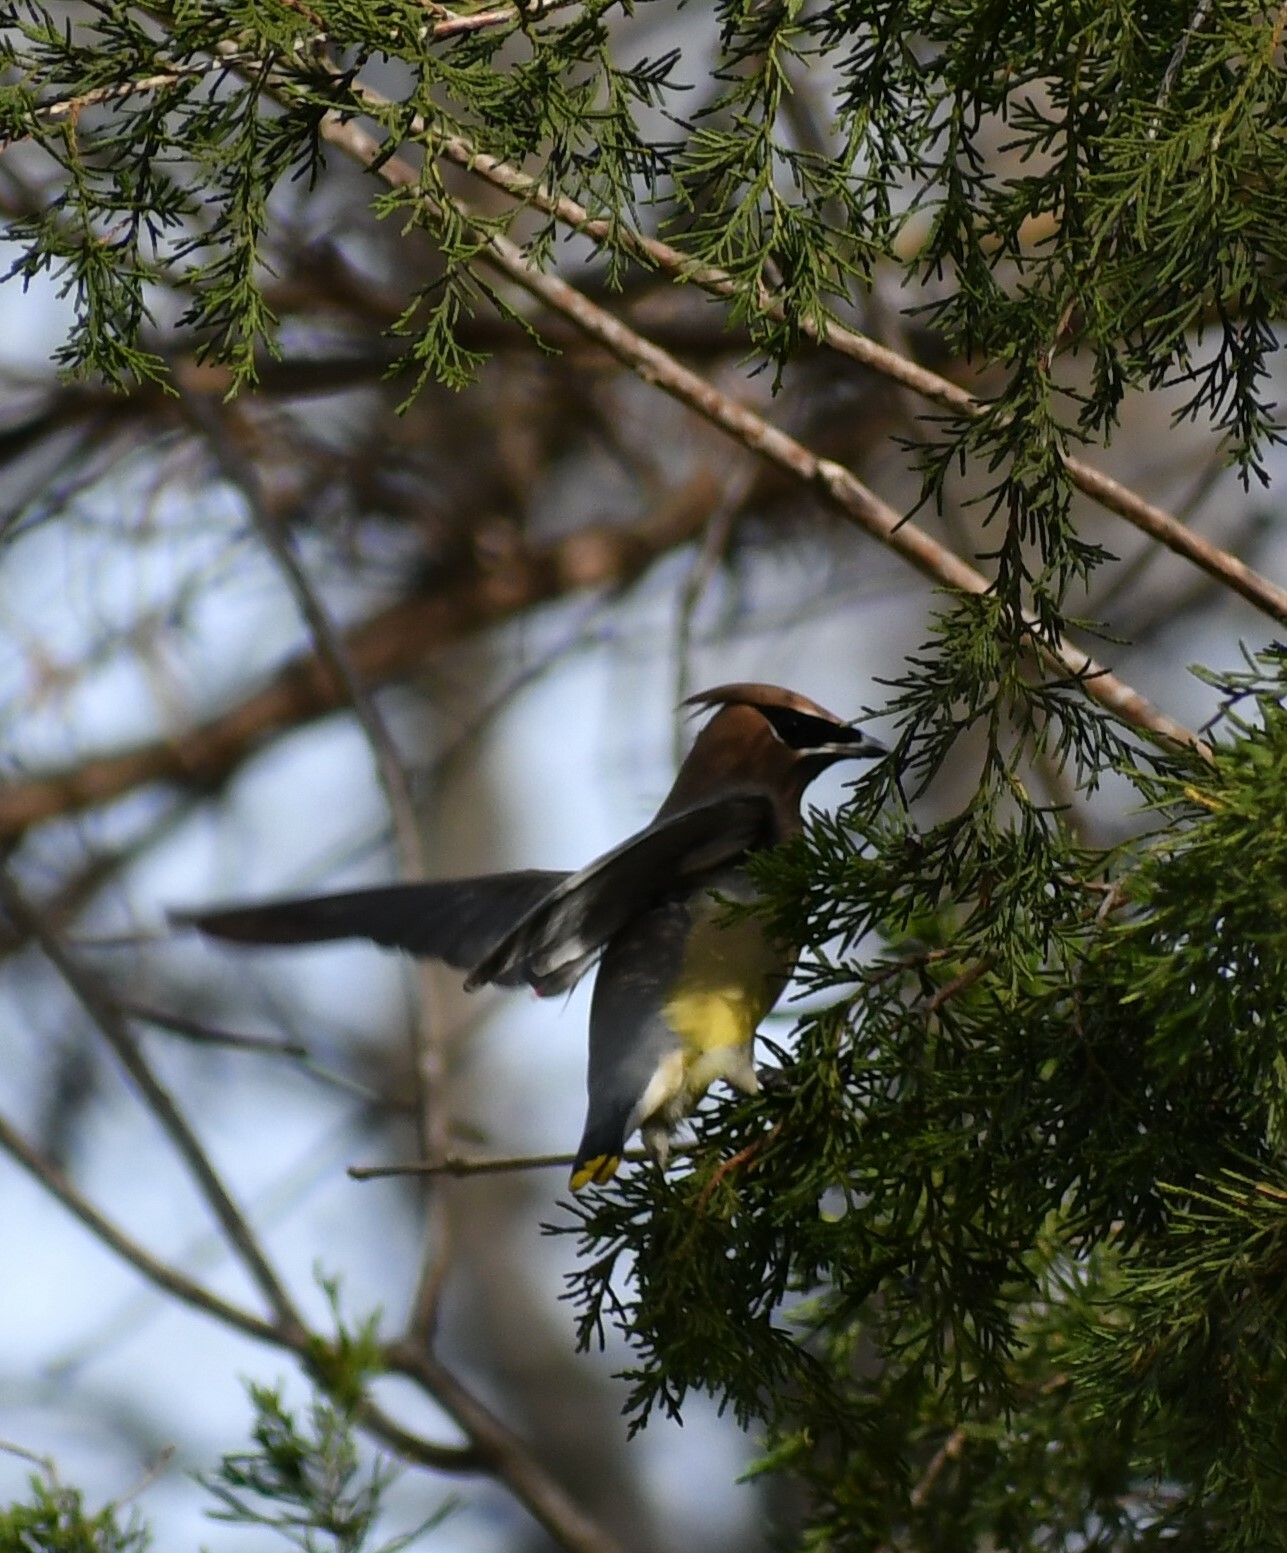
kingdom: Animalia
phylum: Chordata
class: Aves
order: Passeriformes
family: Bombycillidae
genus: Bombycilla
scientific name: Bombycilla cedrorum
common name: Cedar waxwing
